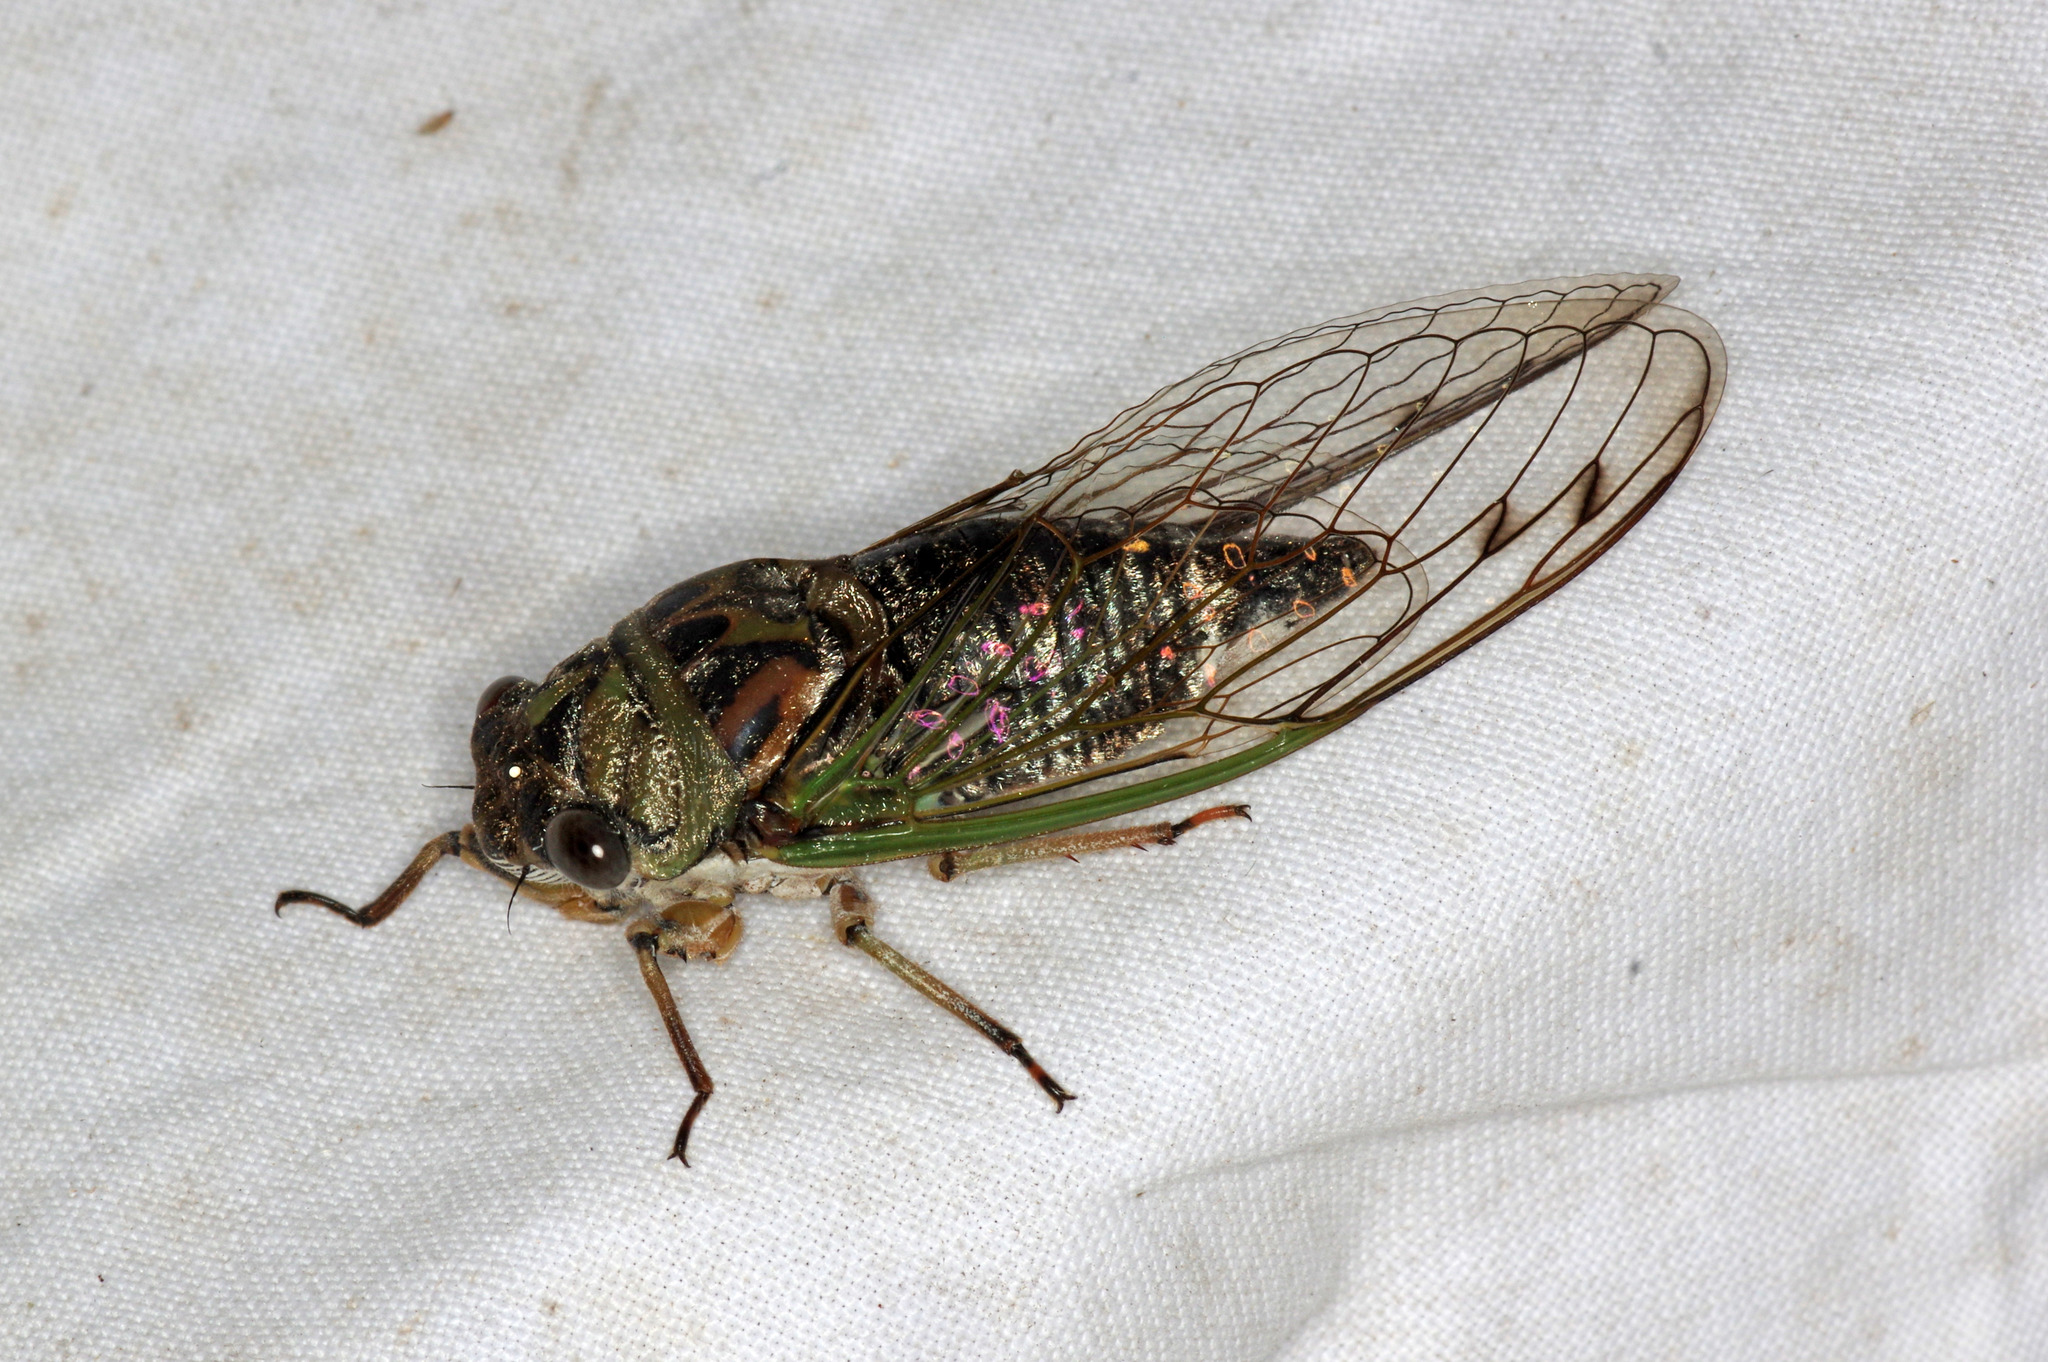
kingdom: Animalia
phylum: Arthropoda
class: Insecta
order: Hemiptera
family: Cicadidae
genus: Neotibicen
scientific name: Neotibicen canicularis
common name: God-day cicada
